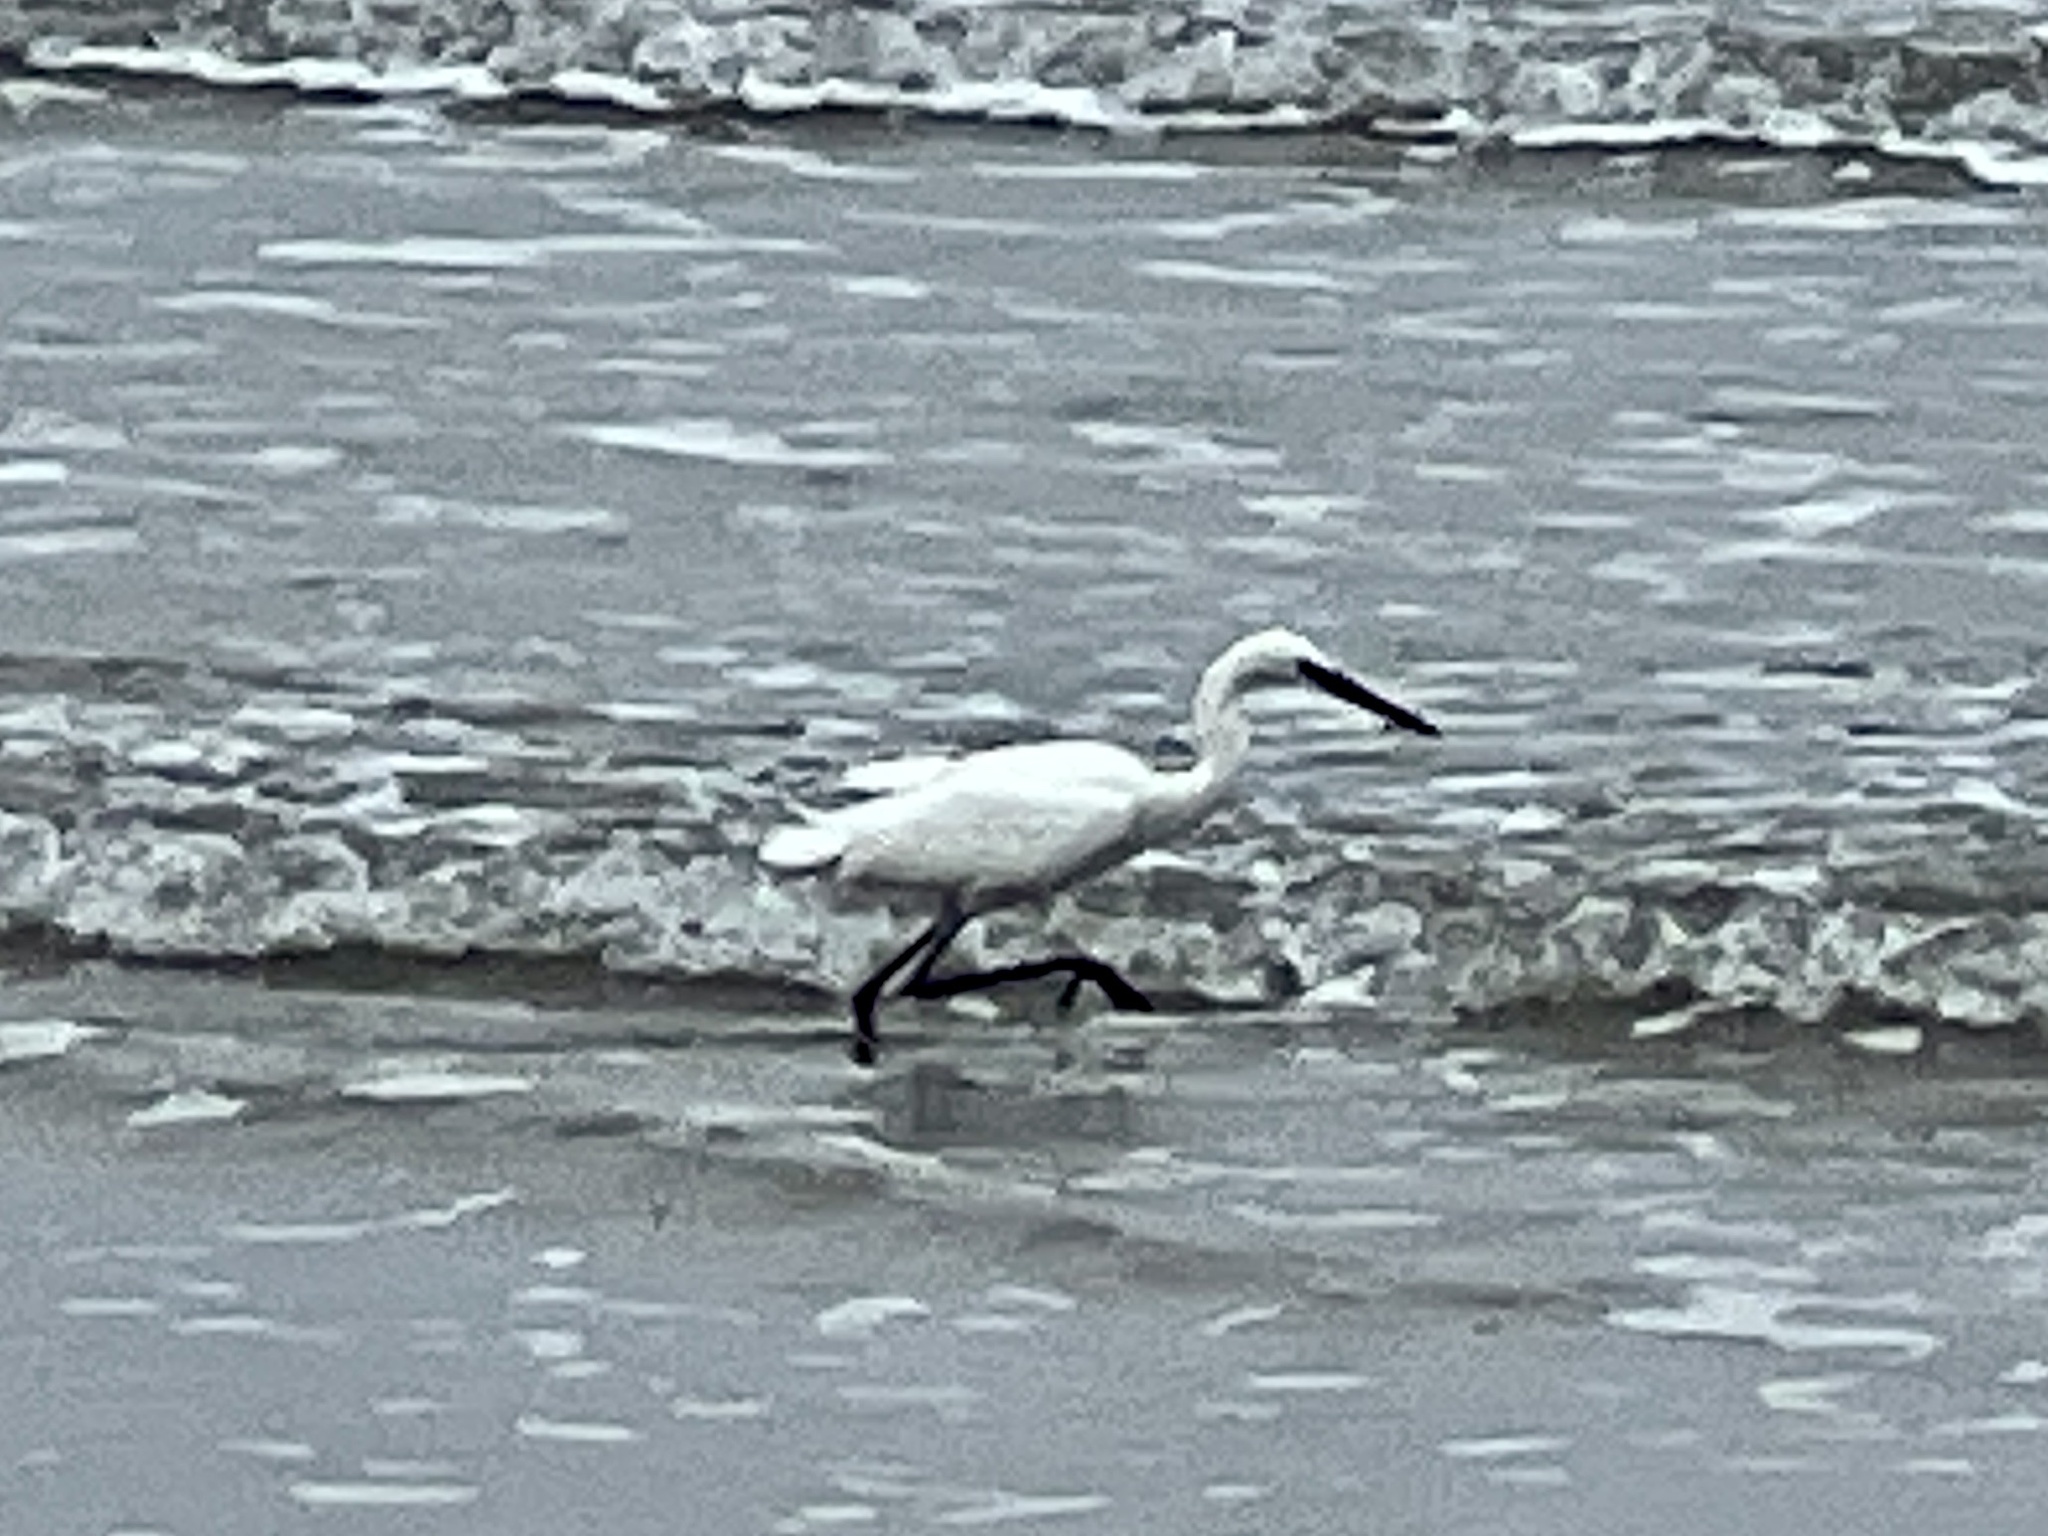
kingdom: Animalia
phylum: Chordata
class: Aves
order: Pelecaniformes
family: Ardeidae
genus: Egretta
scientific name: Egretta rufescens
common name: Reddish egret
